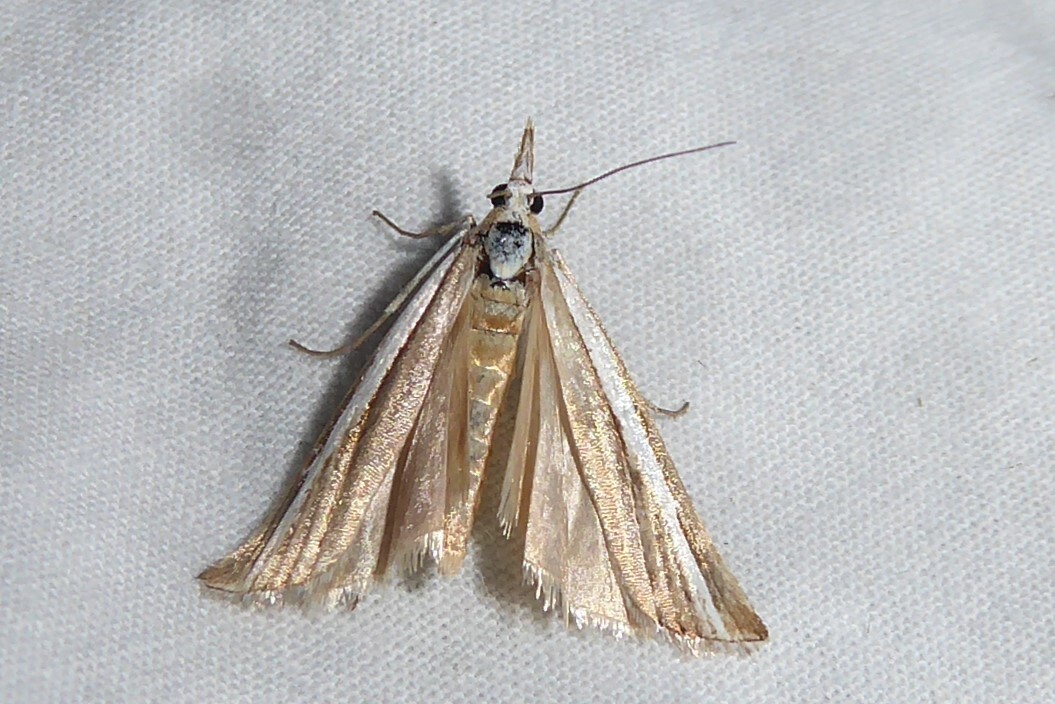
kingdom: Animalia
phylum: Arthropoda
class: Insecta
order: Lepidoptera
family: Crambidae
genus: Orocrambus
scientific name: Orocrambus vittellus
